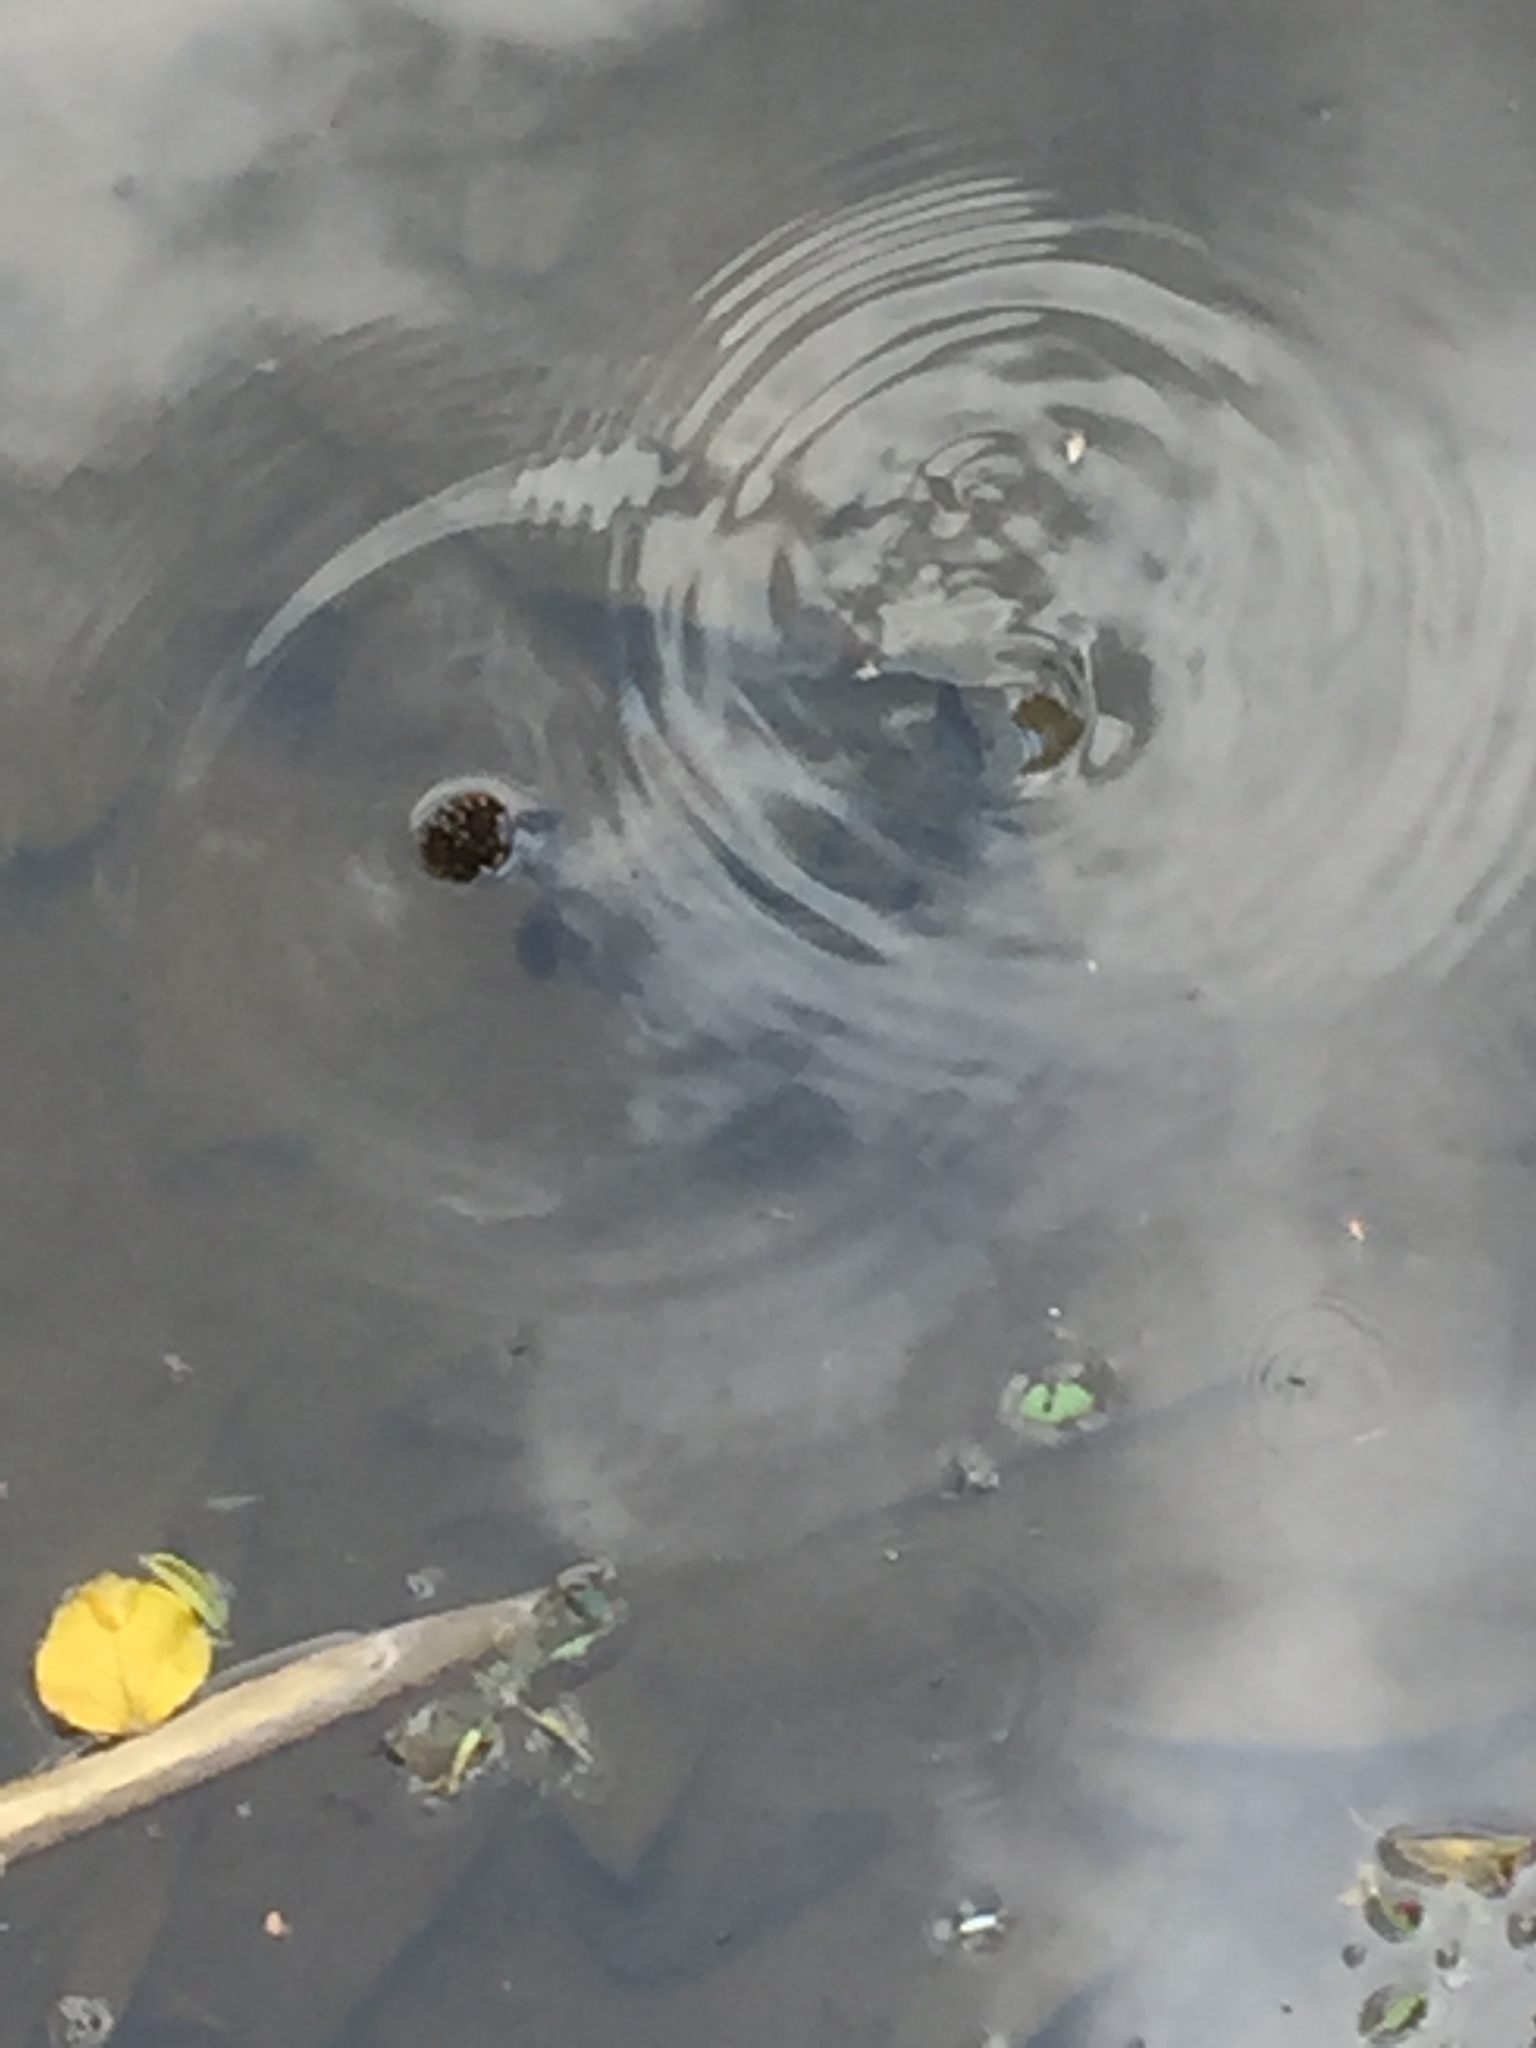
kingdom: Animalia
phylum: Chordata
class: Testudines
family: Geoemydidae
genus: Melanochelys
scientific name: Melanochelys trijuga
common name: Indian black turtle
